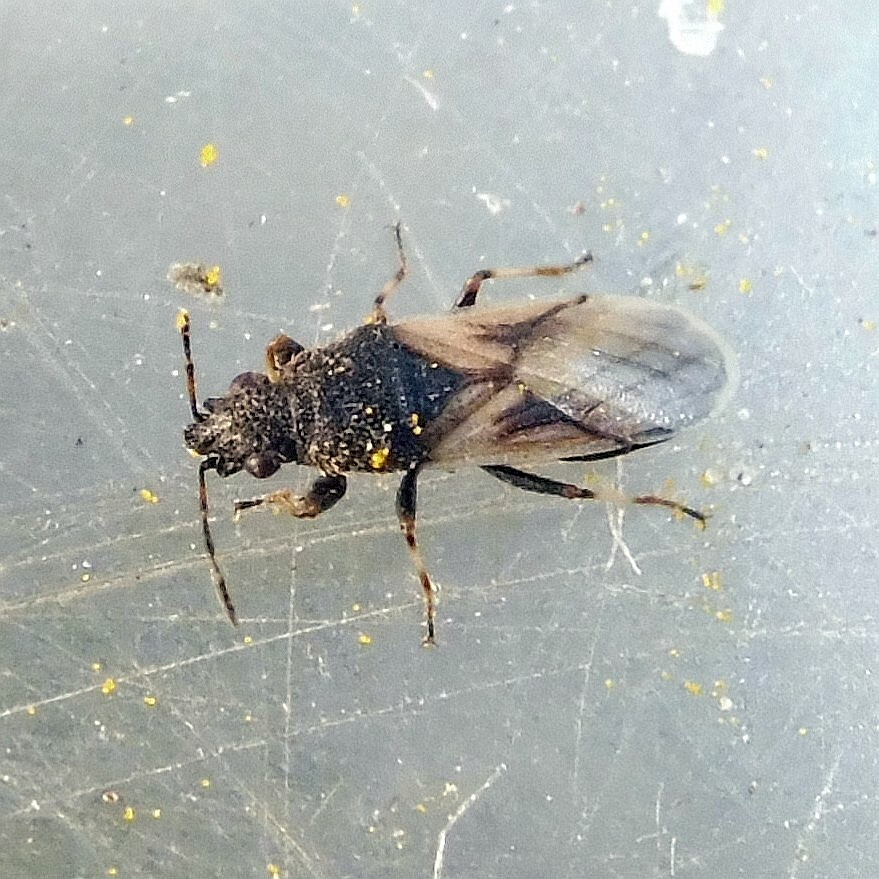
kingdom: Animalia
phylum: Arthropoda
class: Insecta
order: Hemiptera
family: Oxycarenidae
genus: Metopoplax
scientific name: Metopoplax ditomoides
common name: Seed bug
